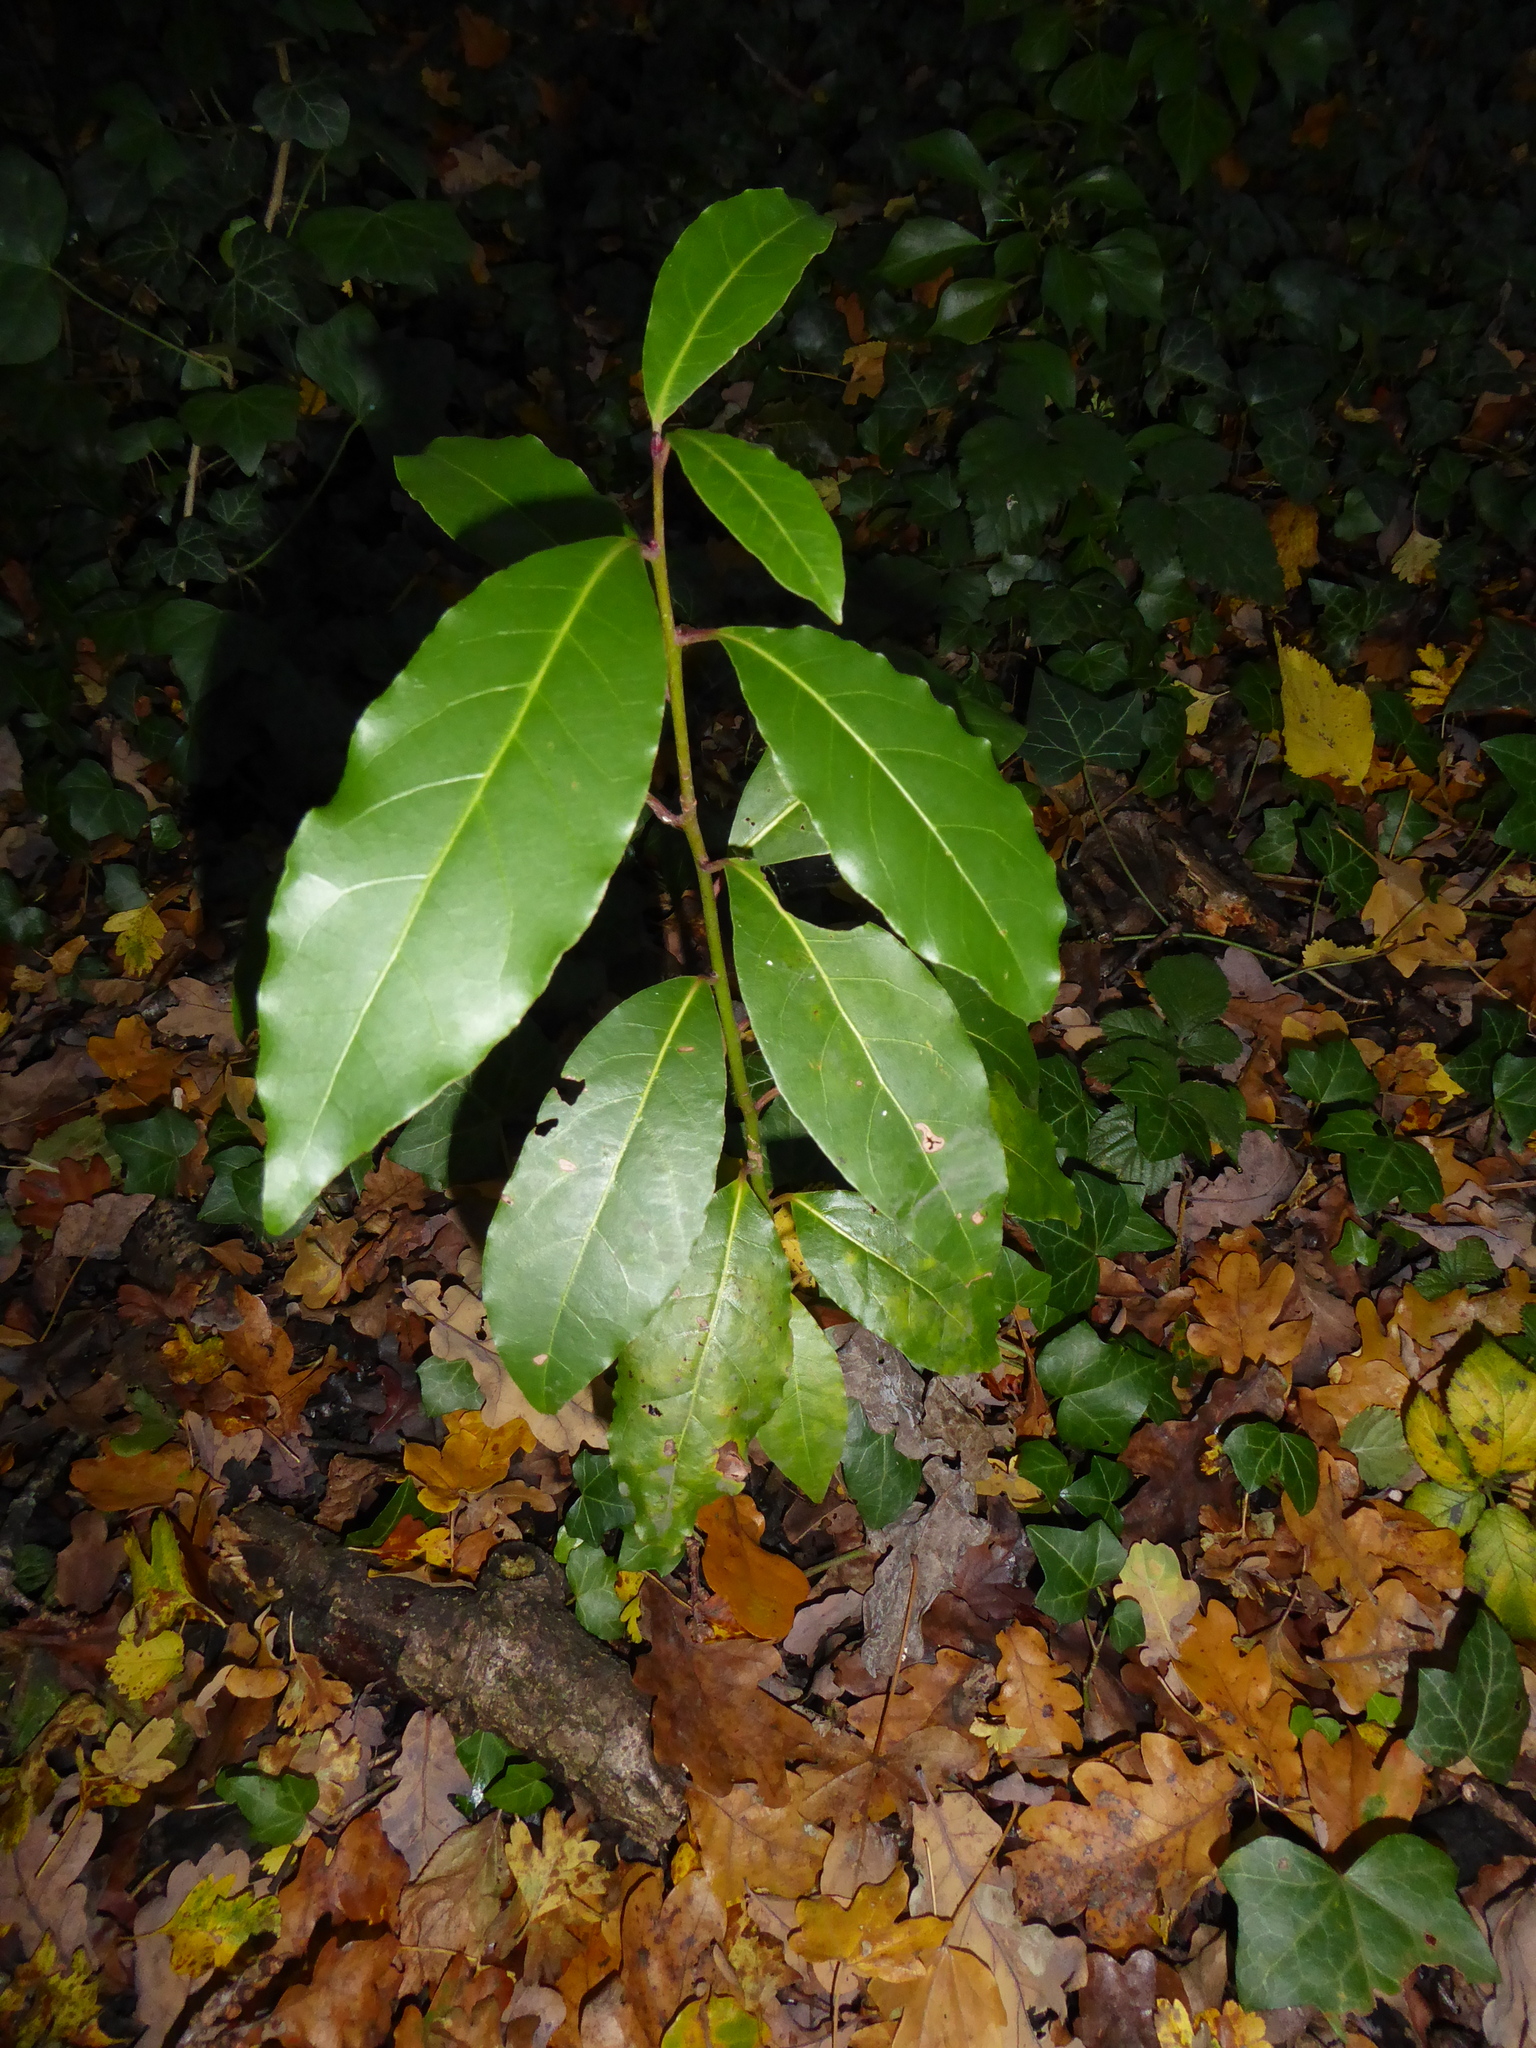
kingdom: Plantae
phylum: Tracheophyta
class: Magnoliopsida
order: Laurales
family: Lauraceae
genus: Laurus
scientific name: Laurus nobilis
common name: Bay
